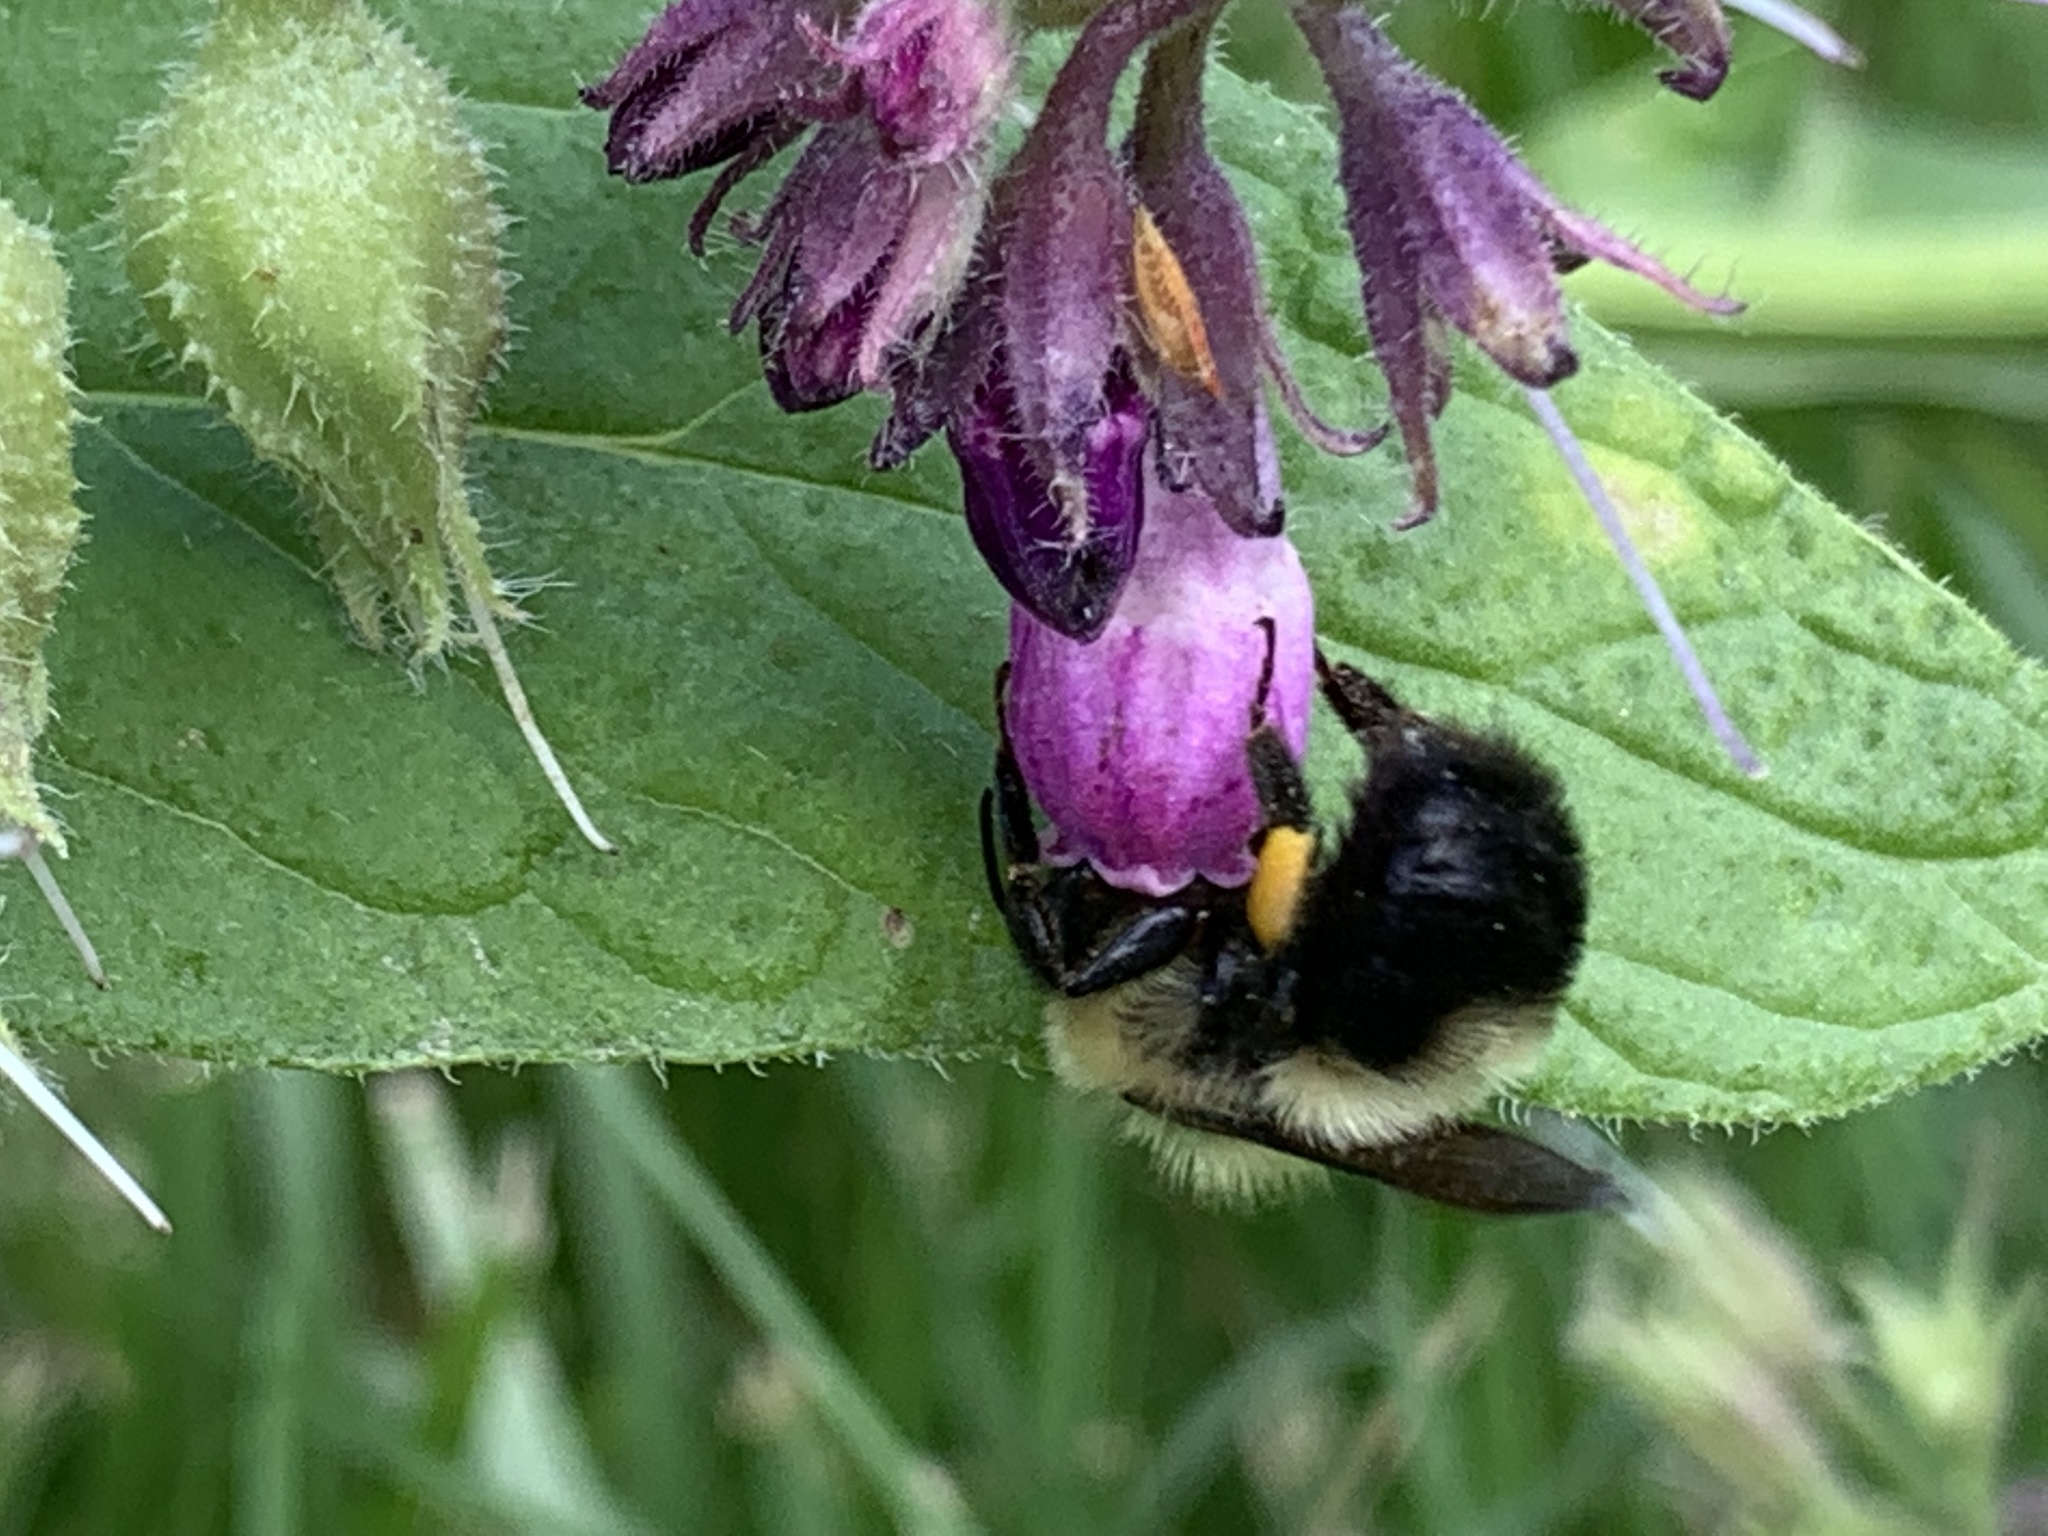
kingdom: Animalia
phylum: Arthropoda
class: Insecta
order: Hymenoptera
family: Apidae
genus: Bombus
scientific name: Bombus bimaculatus
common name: Two-spotted bumble bee
